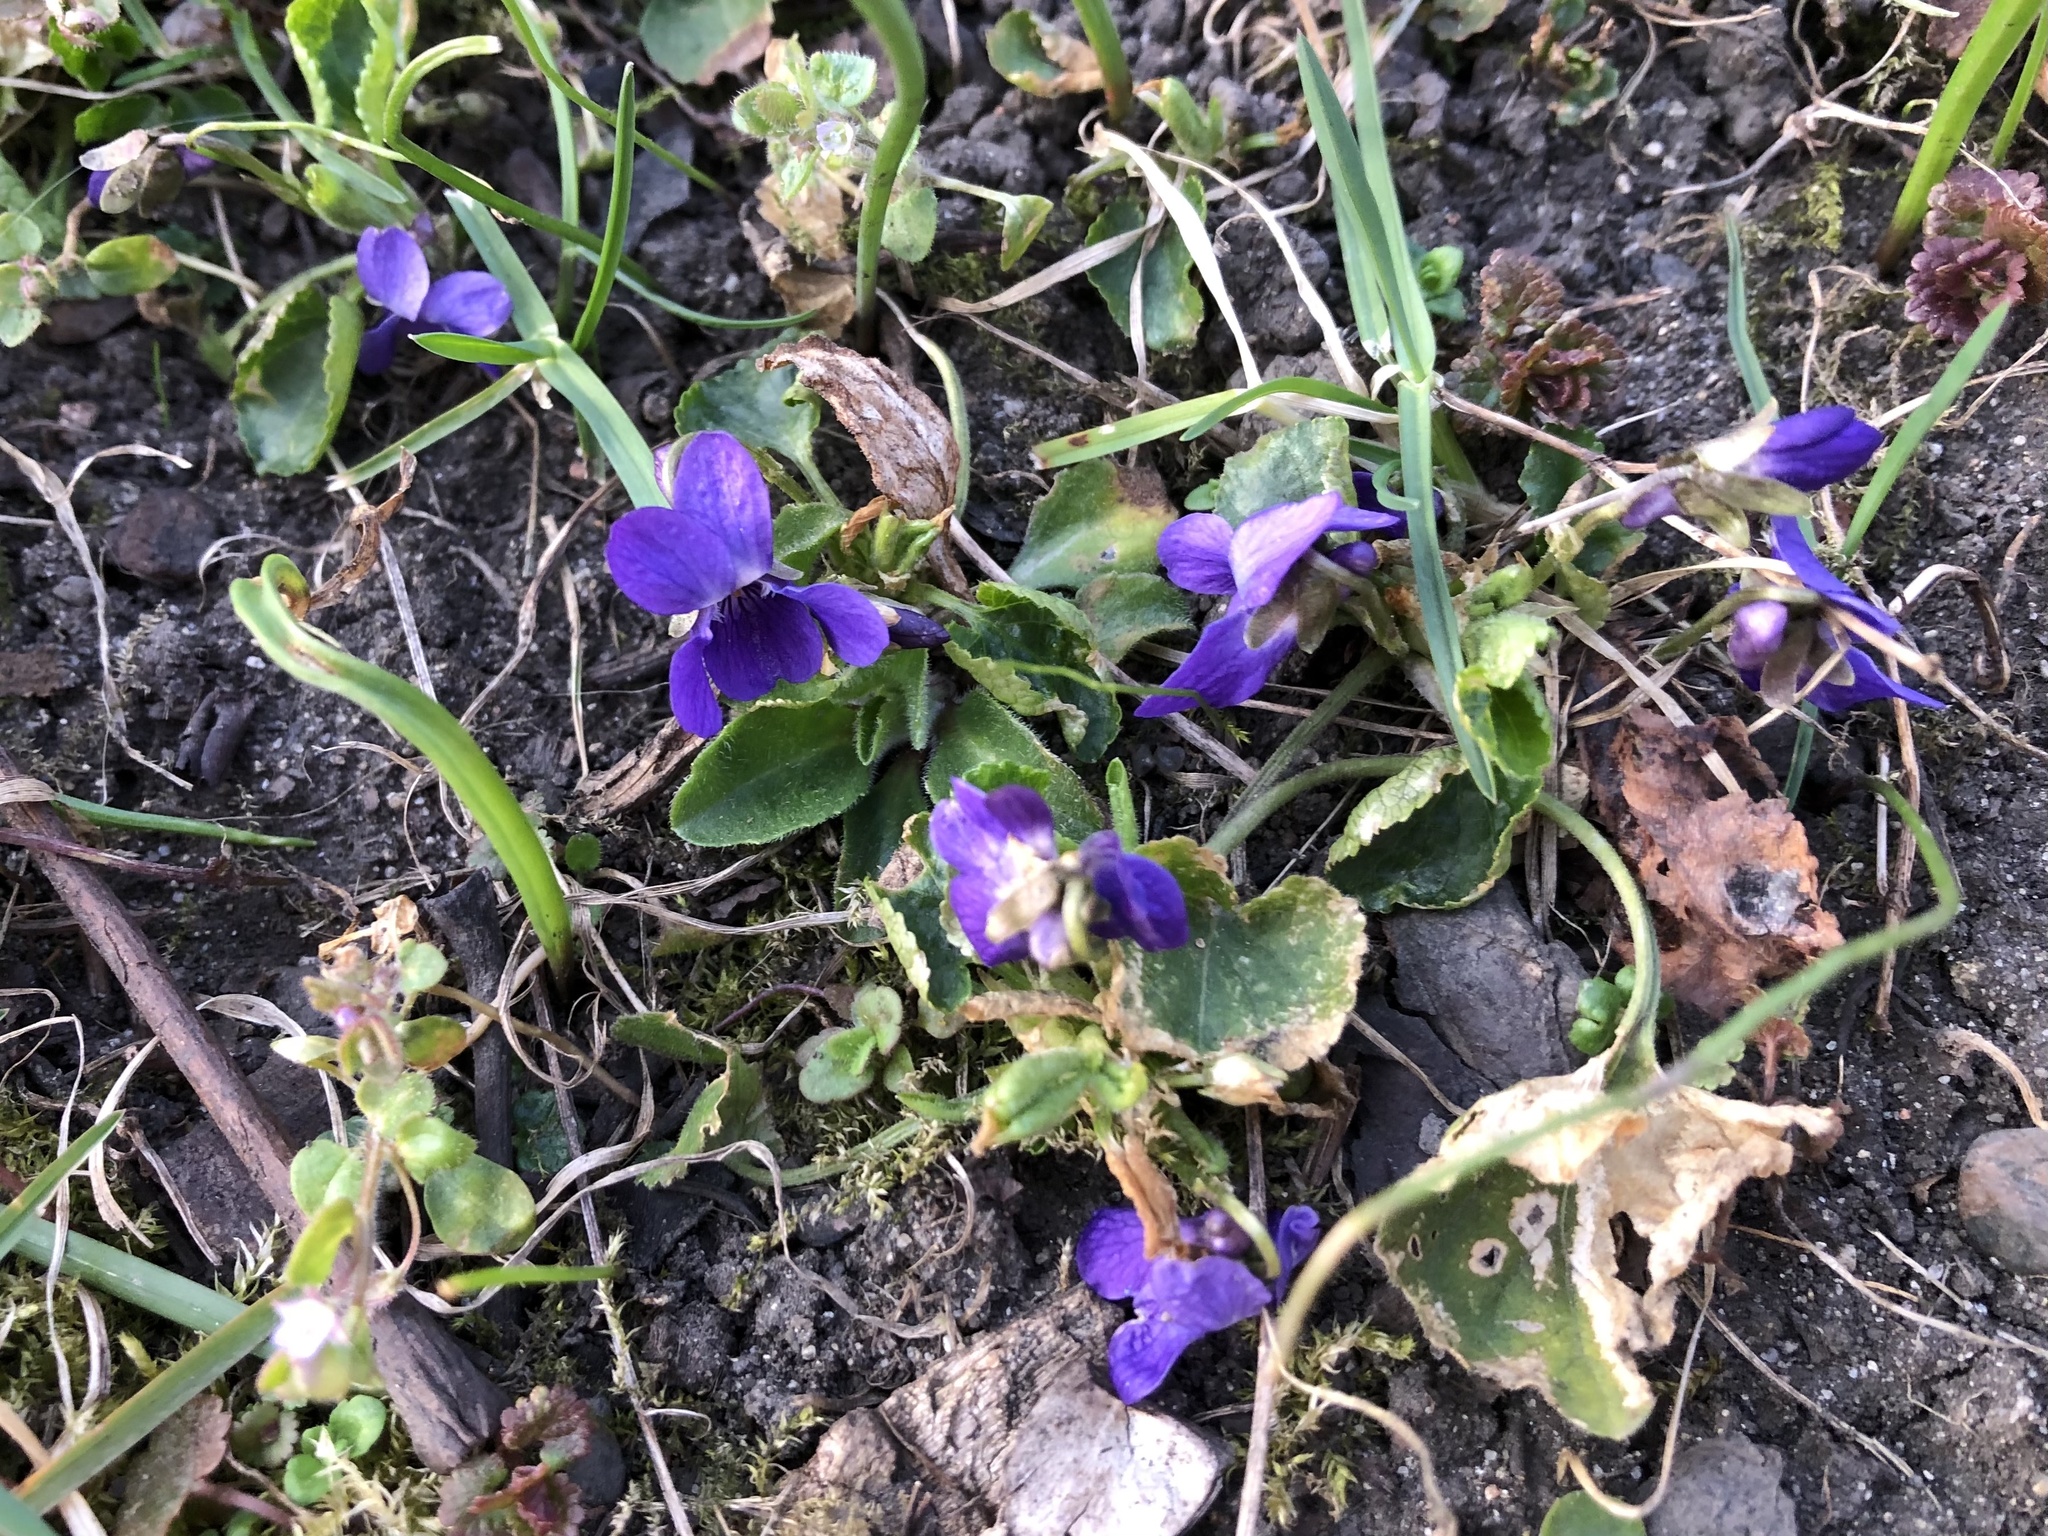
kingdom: Plantae
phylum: Tracheophyta
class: Magnoliopsida
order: Malpighiales
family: Violaceae
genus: Viola
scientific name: Viola odorata
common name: Sweet violet
